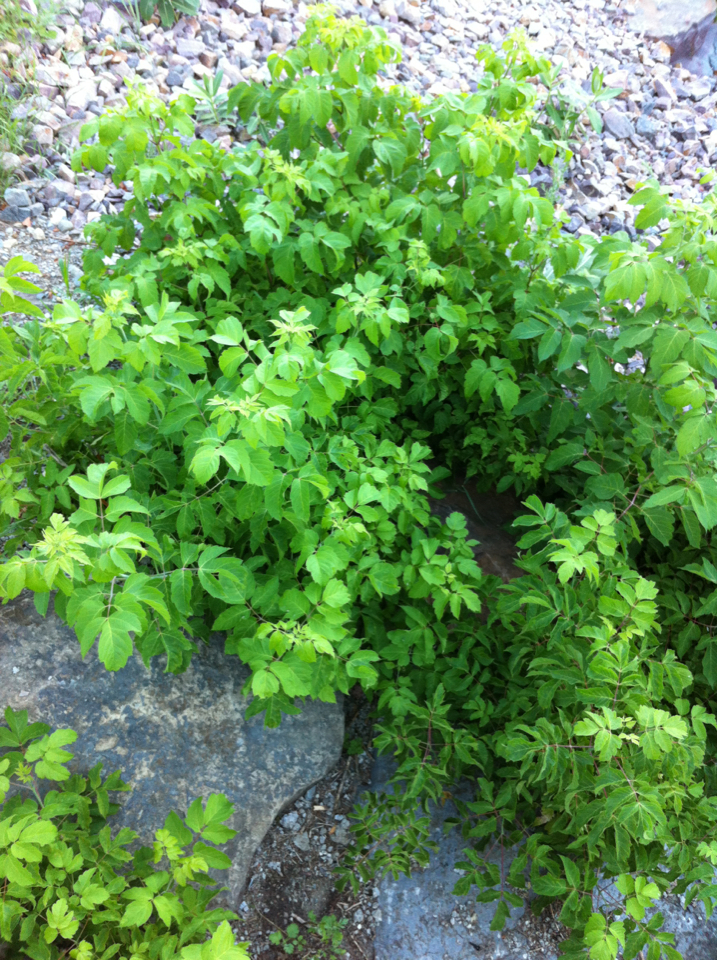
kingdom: Plantae
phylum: Tracheophyta
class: Magnoliopsida
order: Sapindales
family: Sapindaceae
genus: Acer
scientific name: Acer negundo
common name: Ashleaf maple
